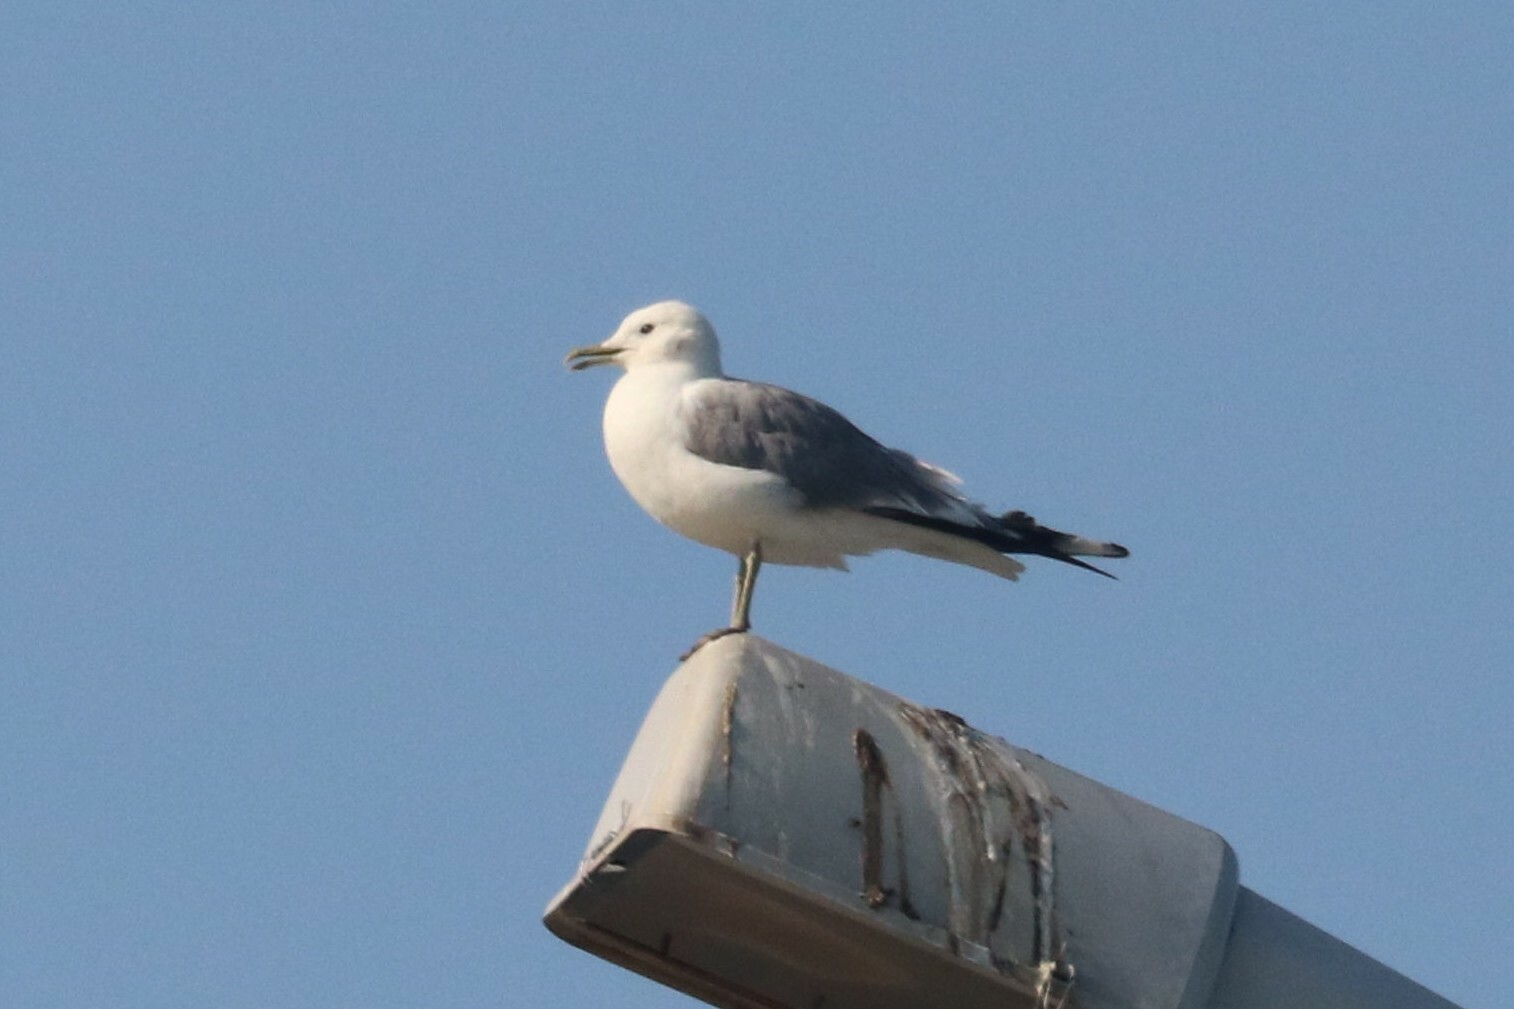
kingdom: Animalia
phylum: Chordata
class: Aves
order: Charadriiformes
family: Laridae
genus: Larus
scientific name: Larus canus
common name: Mew gull
